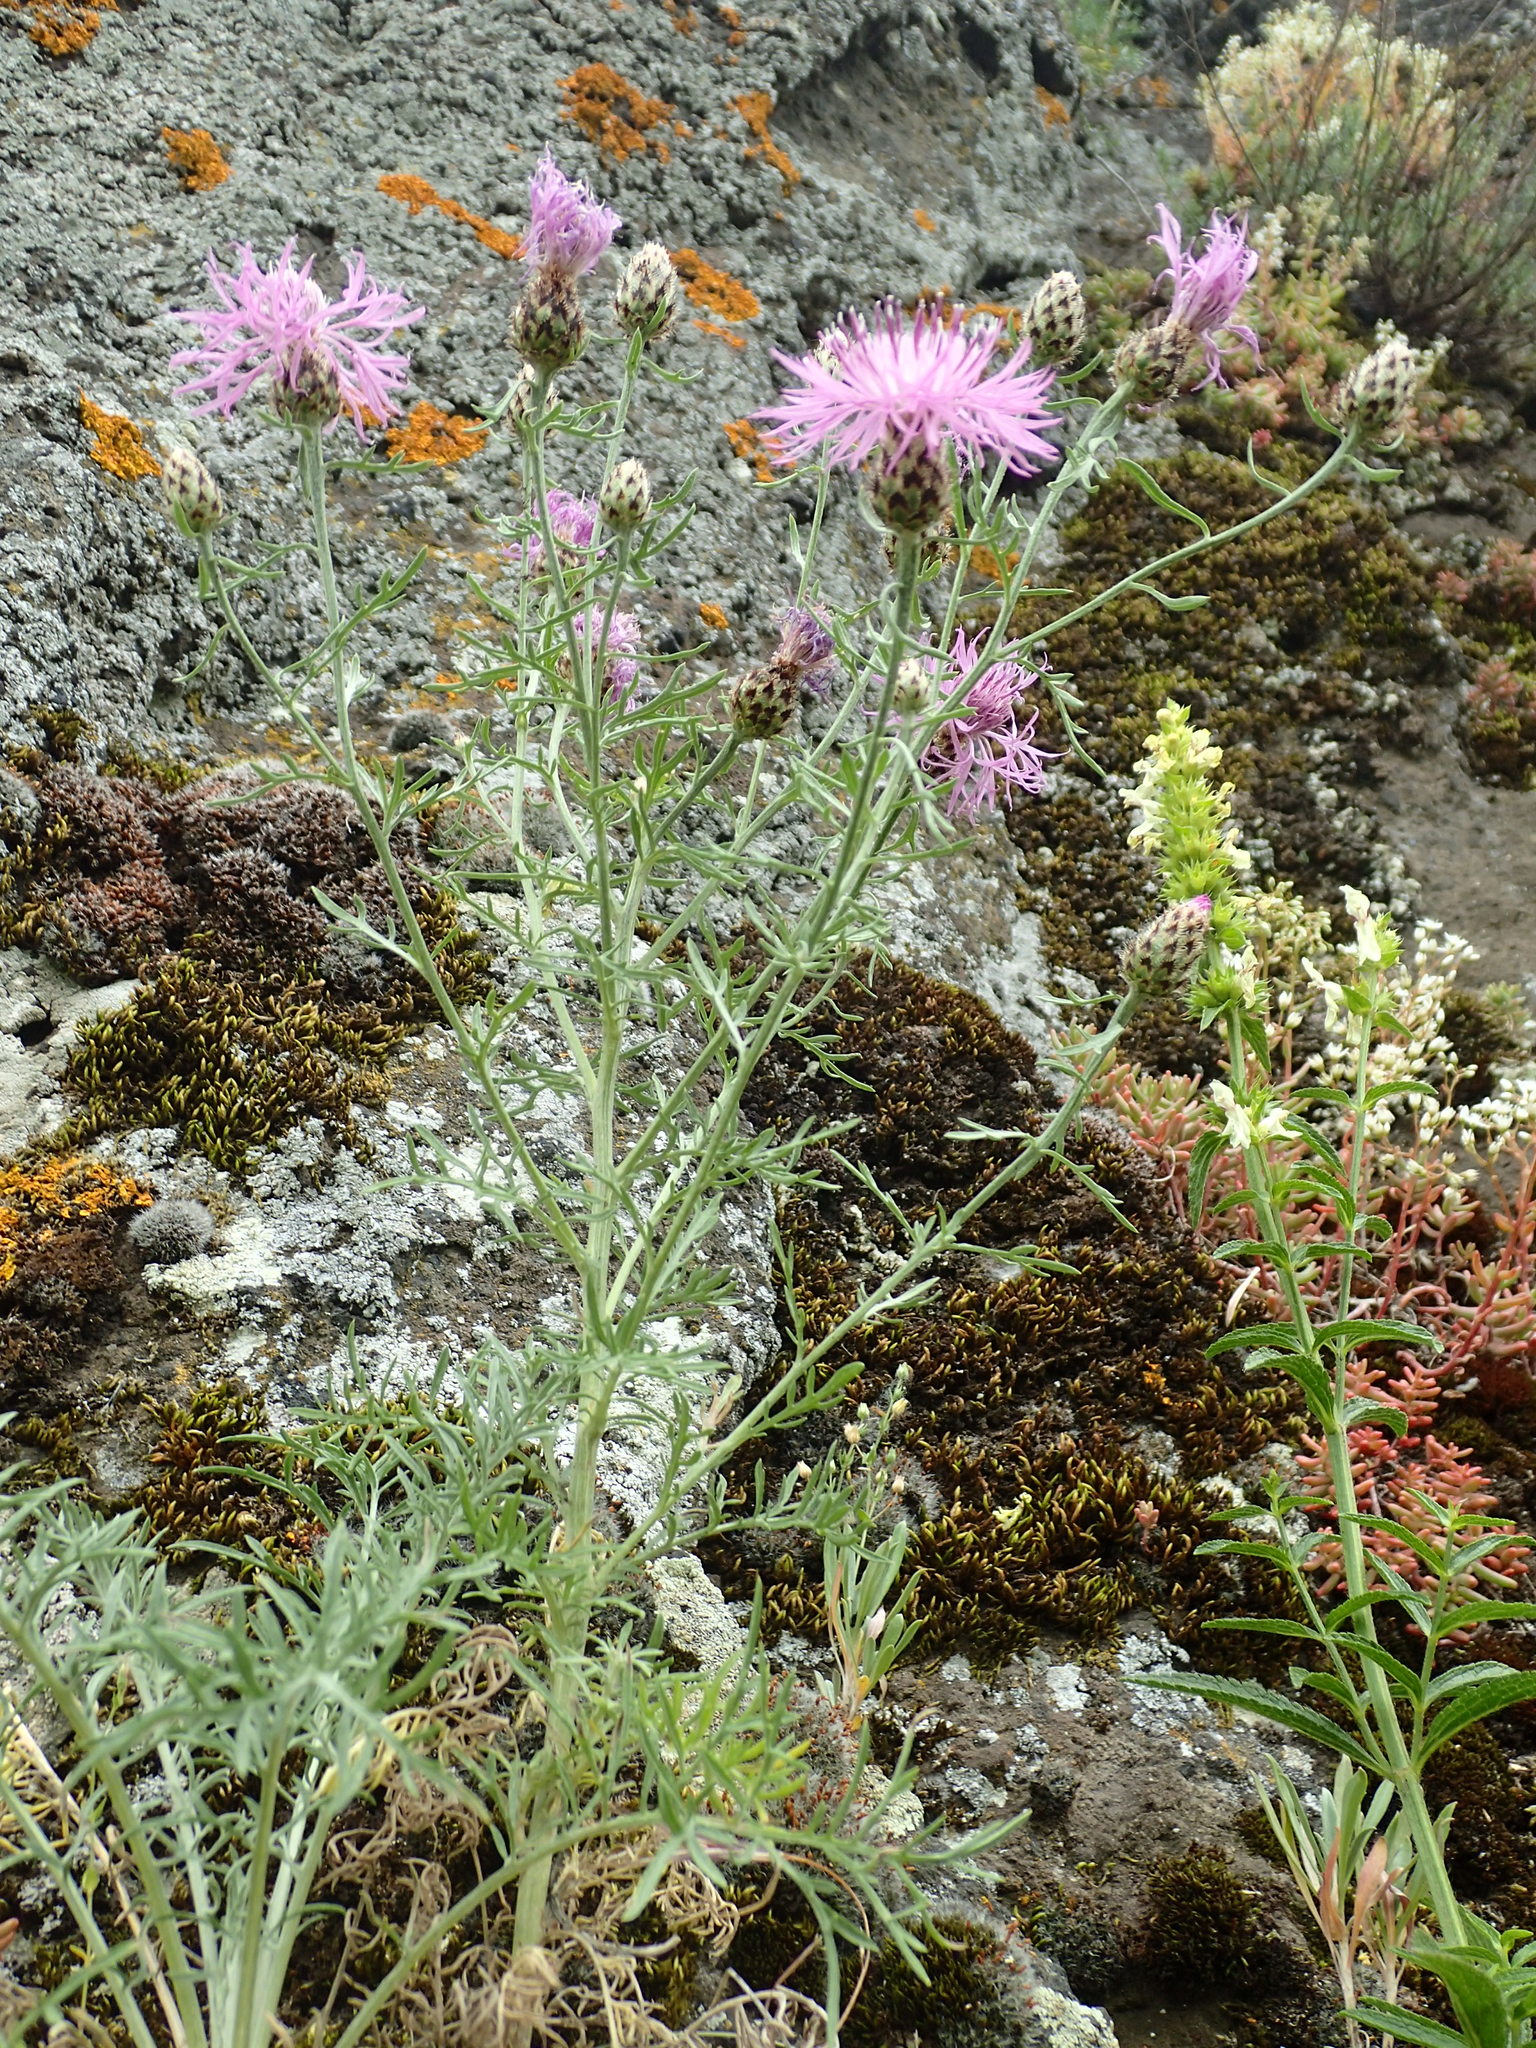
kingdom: Plantae
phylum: Tracheophyta
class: Magnoliopsida
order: Asterales
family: Asteraceae
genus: Centaurea
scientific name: Centaurea stoebe
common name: Spotted knapweed
